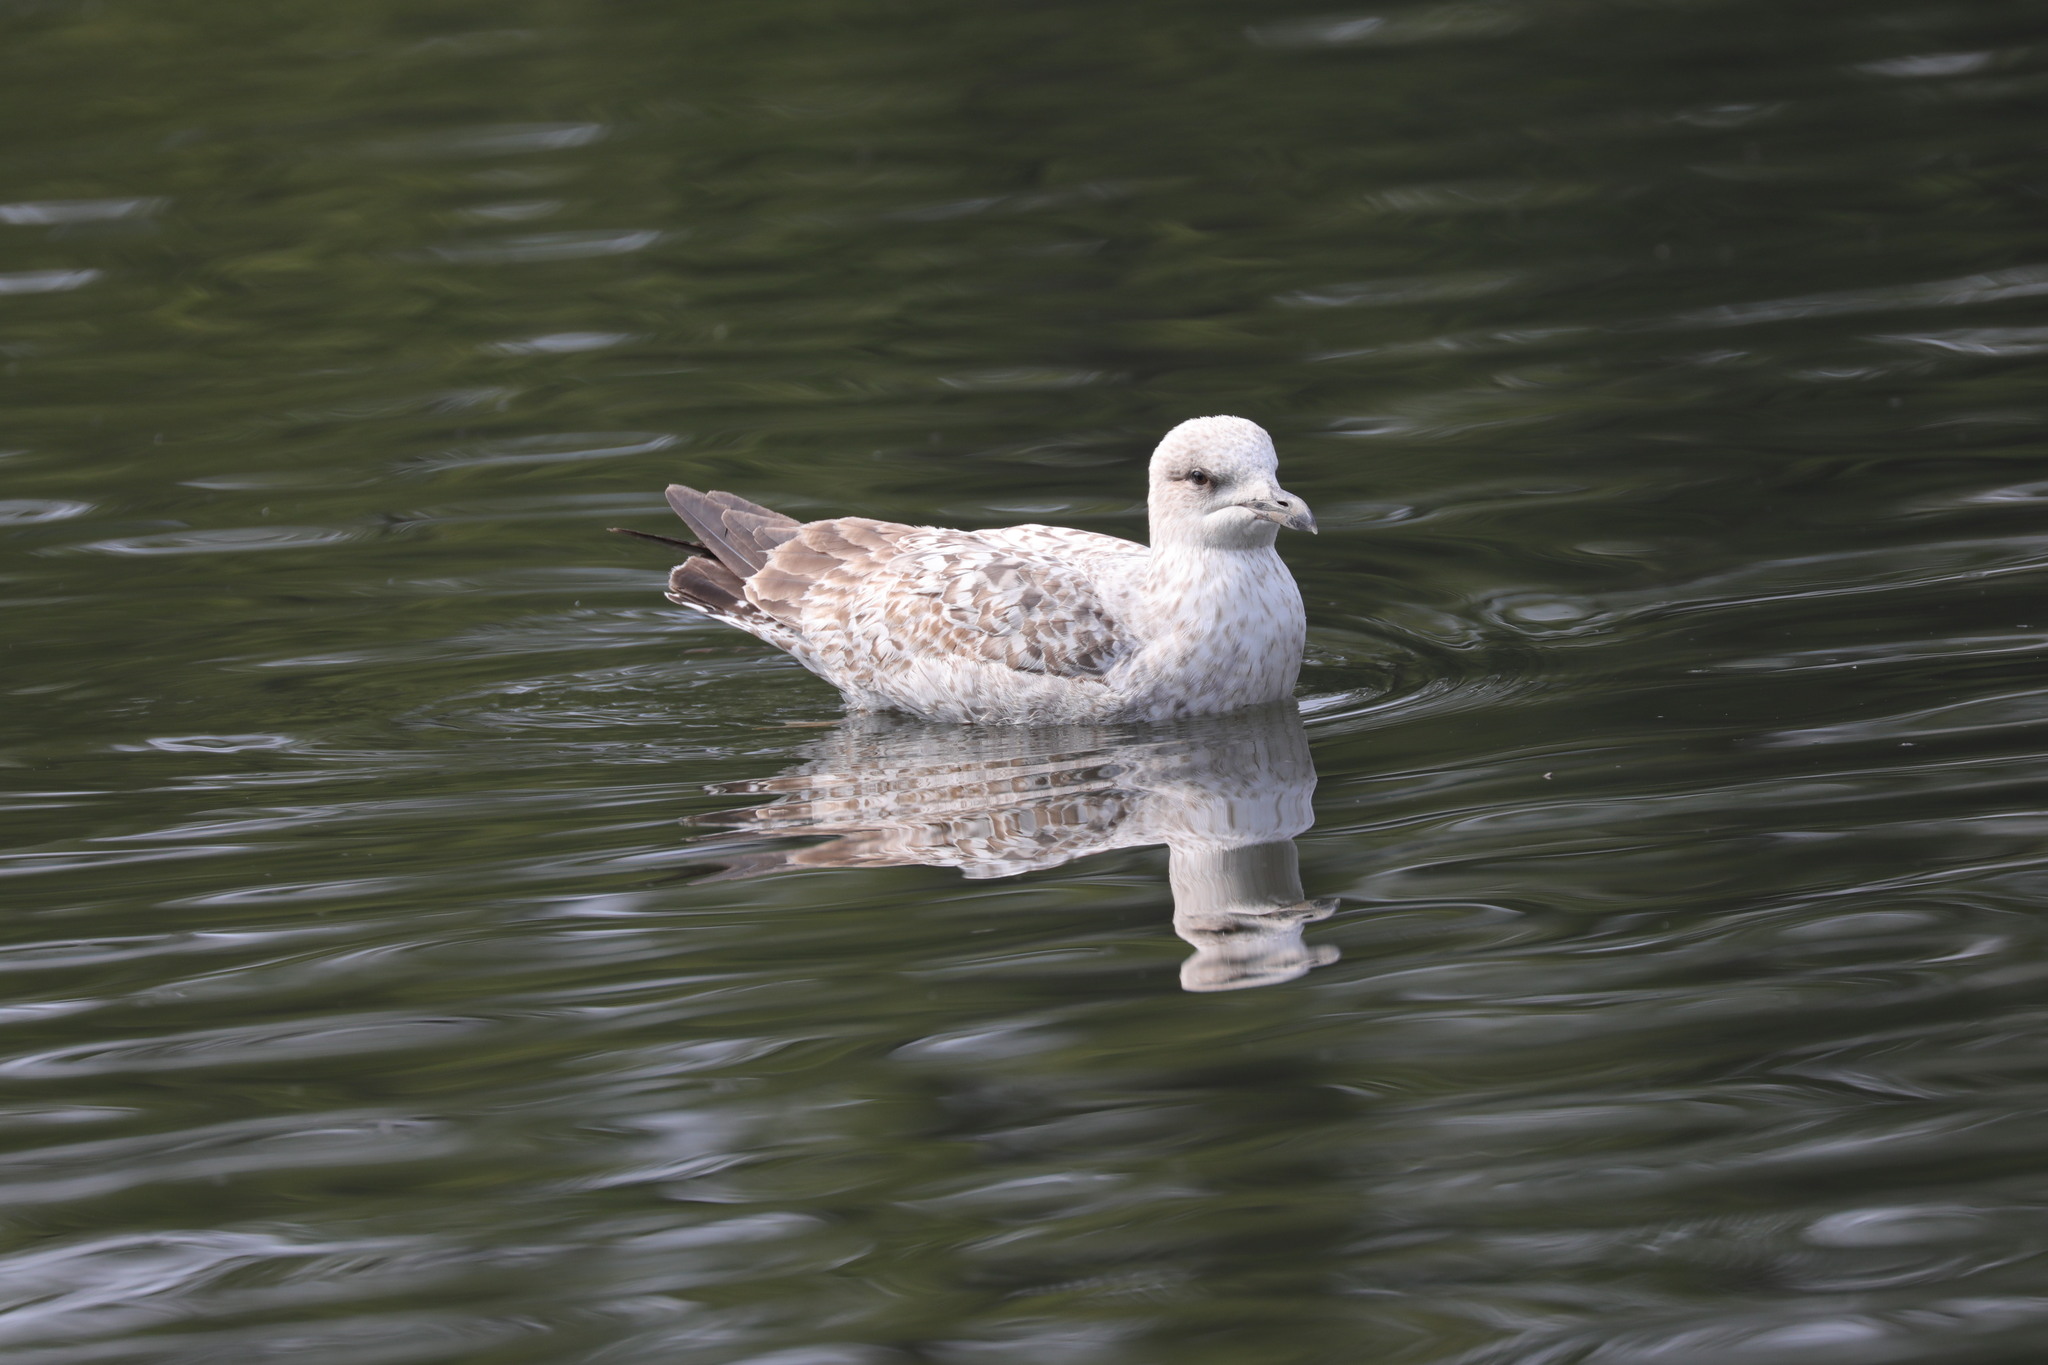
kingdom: Animalia
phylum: Chordata
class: Aves
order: Charadriiformes
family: Laridae
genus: Larus
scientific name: Larus argentatus
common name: Herring gull
